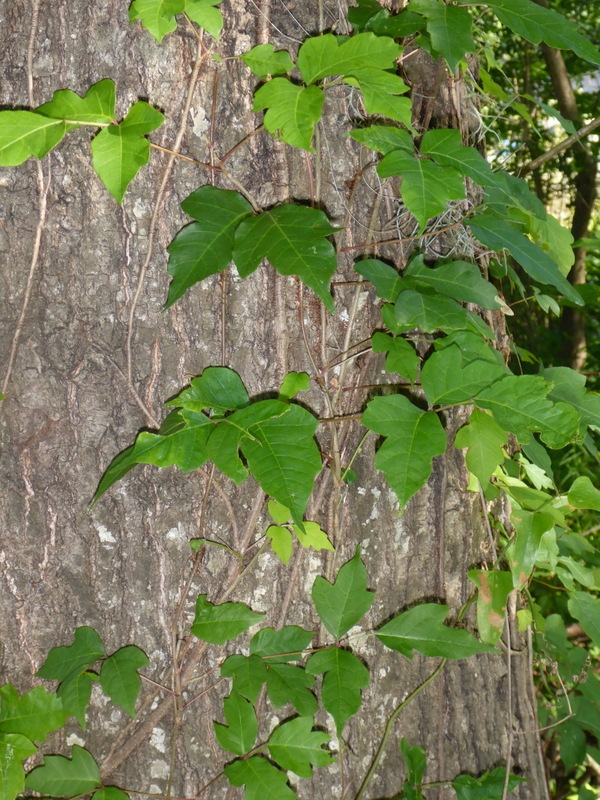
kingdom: Plantae
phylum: Tracheophyta
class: Magnoliopsida
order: Sapindales
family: Anacardiaceae
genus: Toxicodendron
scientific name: Toxicodendron radicans
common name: Poison ivy
